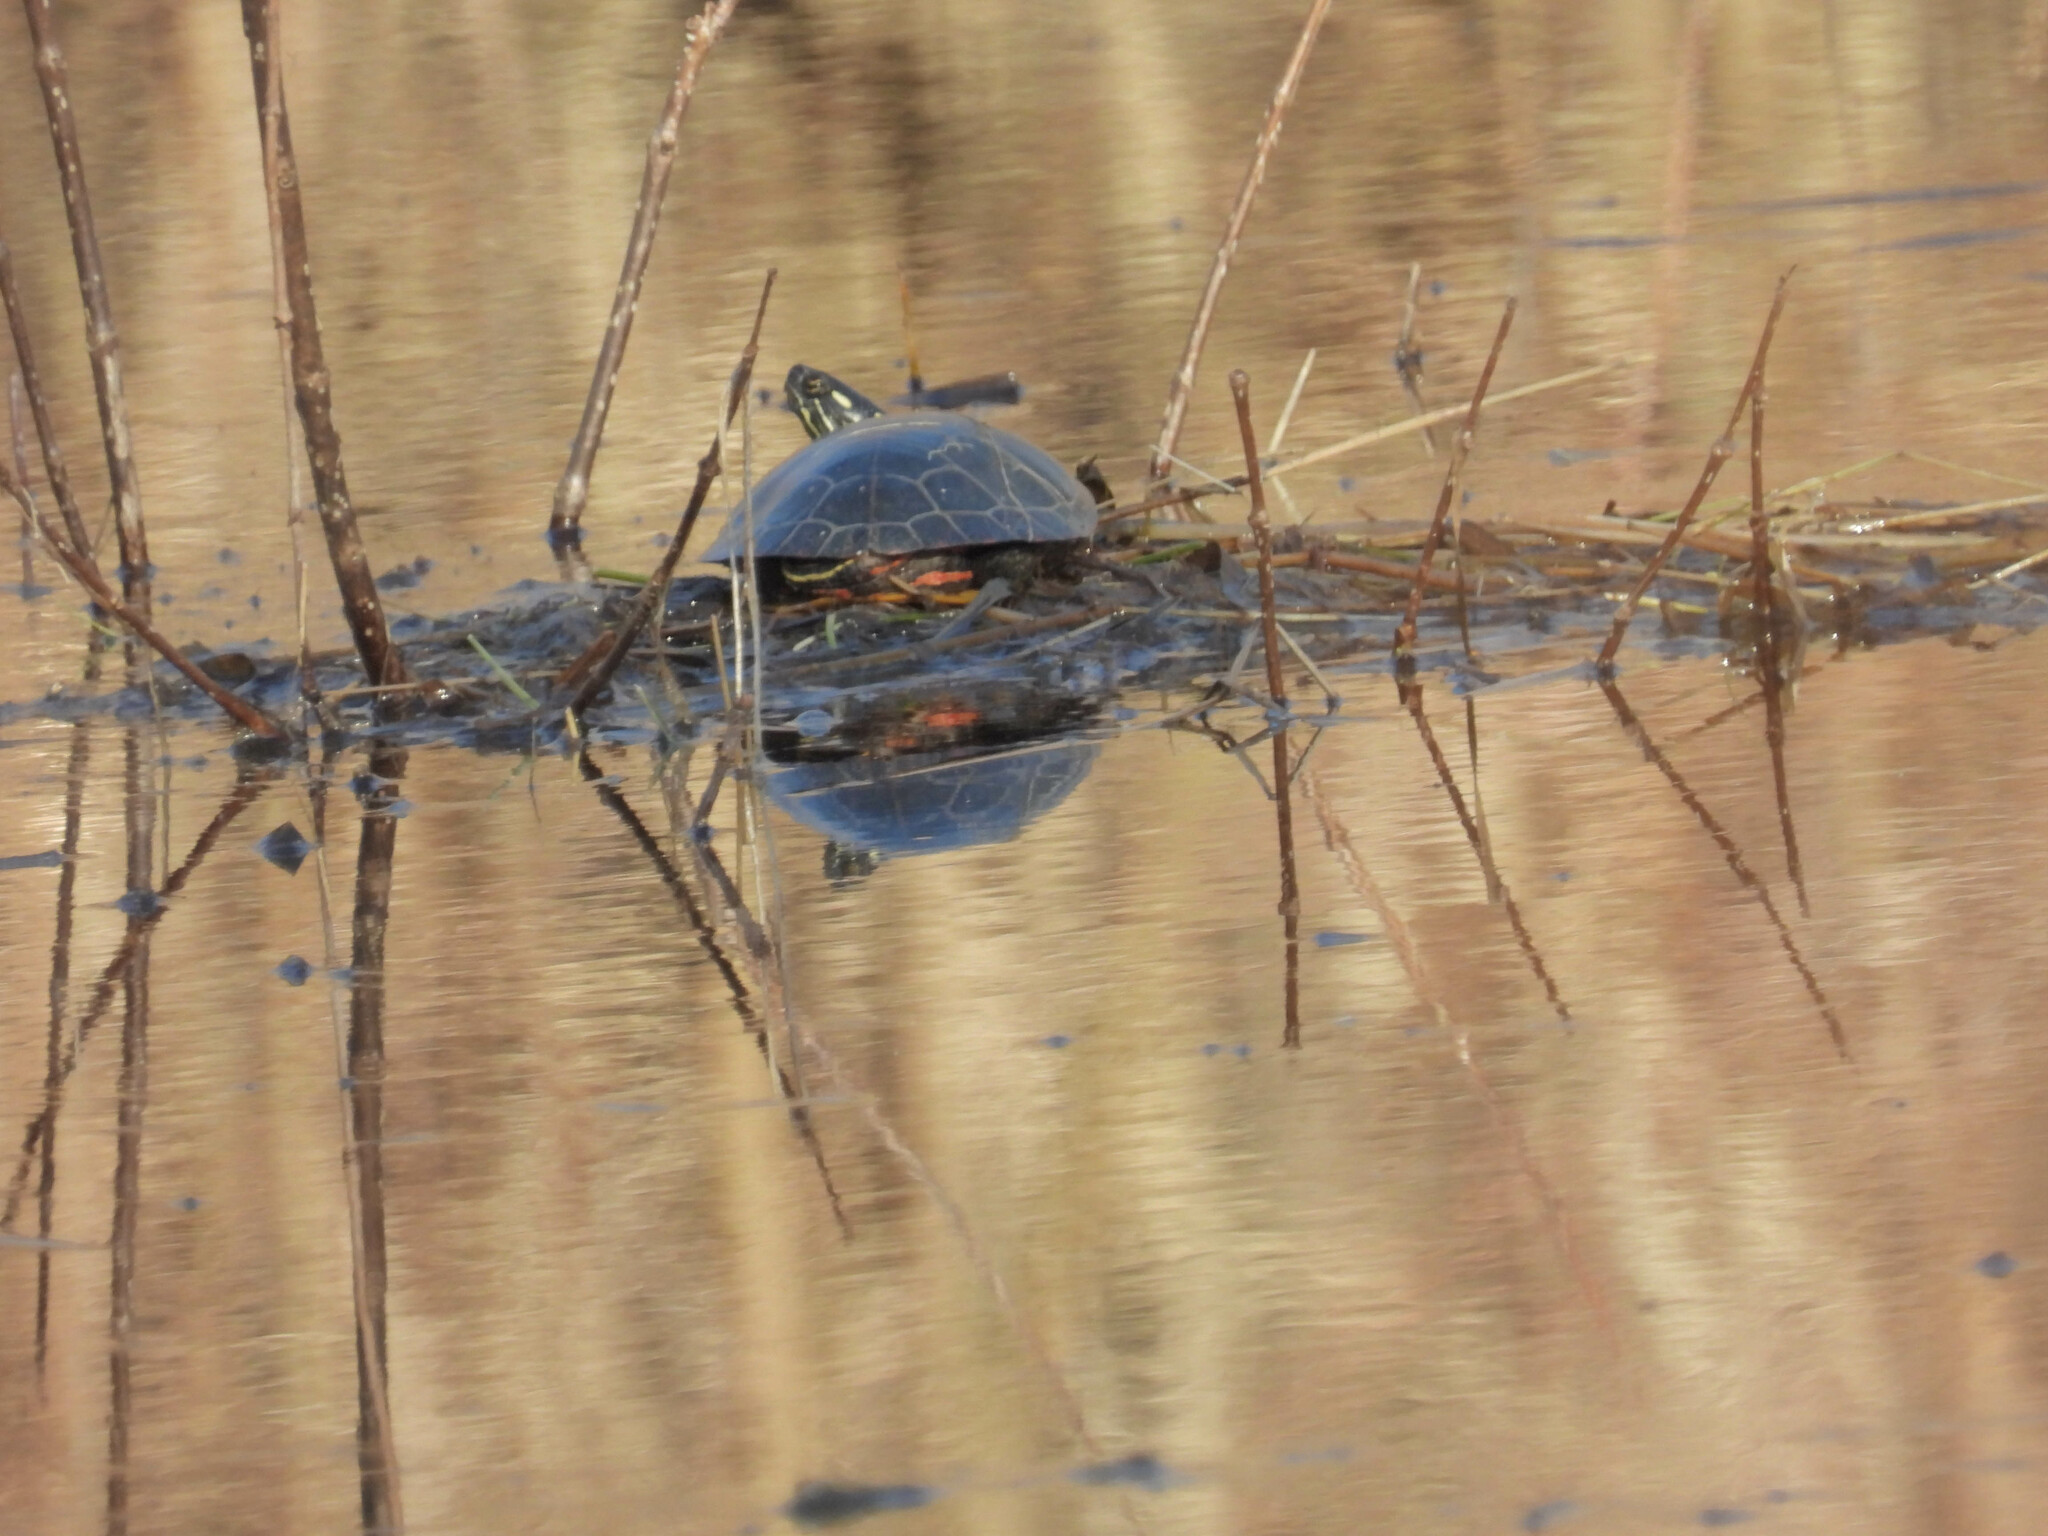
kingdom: Animalia
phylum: Chordata
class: Testudines
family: Emydidae
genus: Chrysemys
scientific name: Chrysemys picta
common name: Painted turtle
